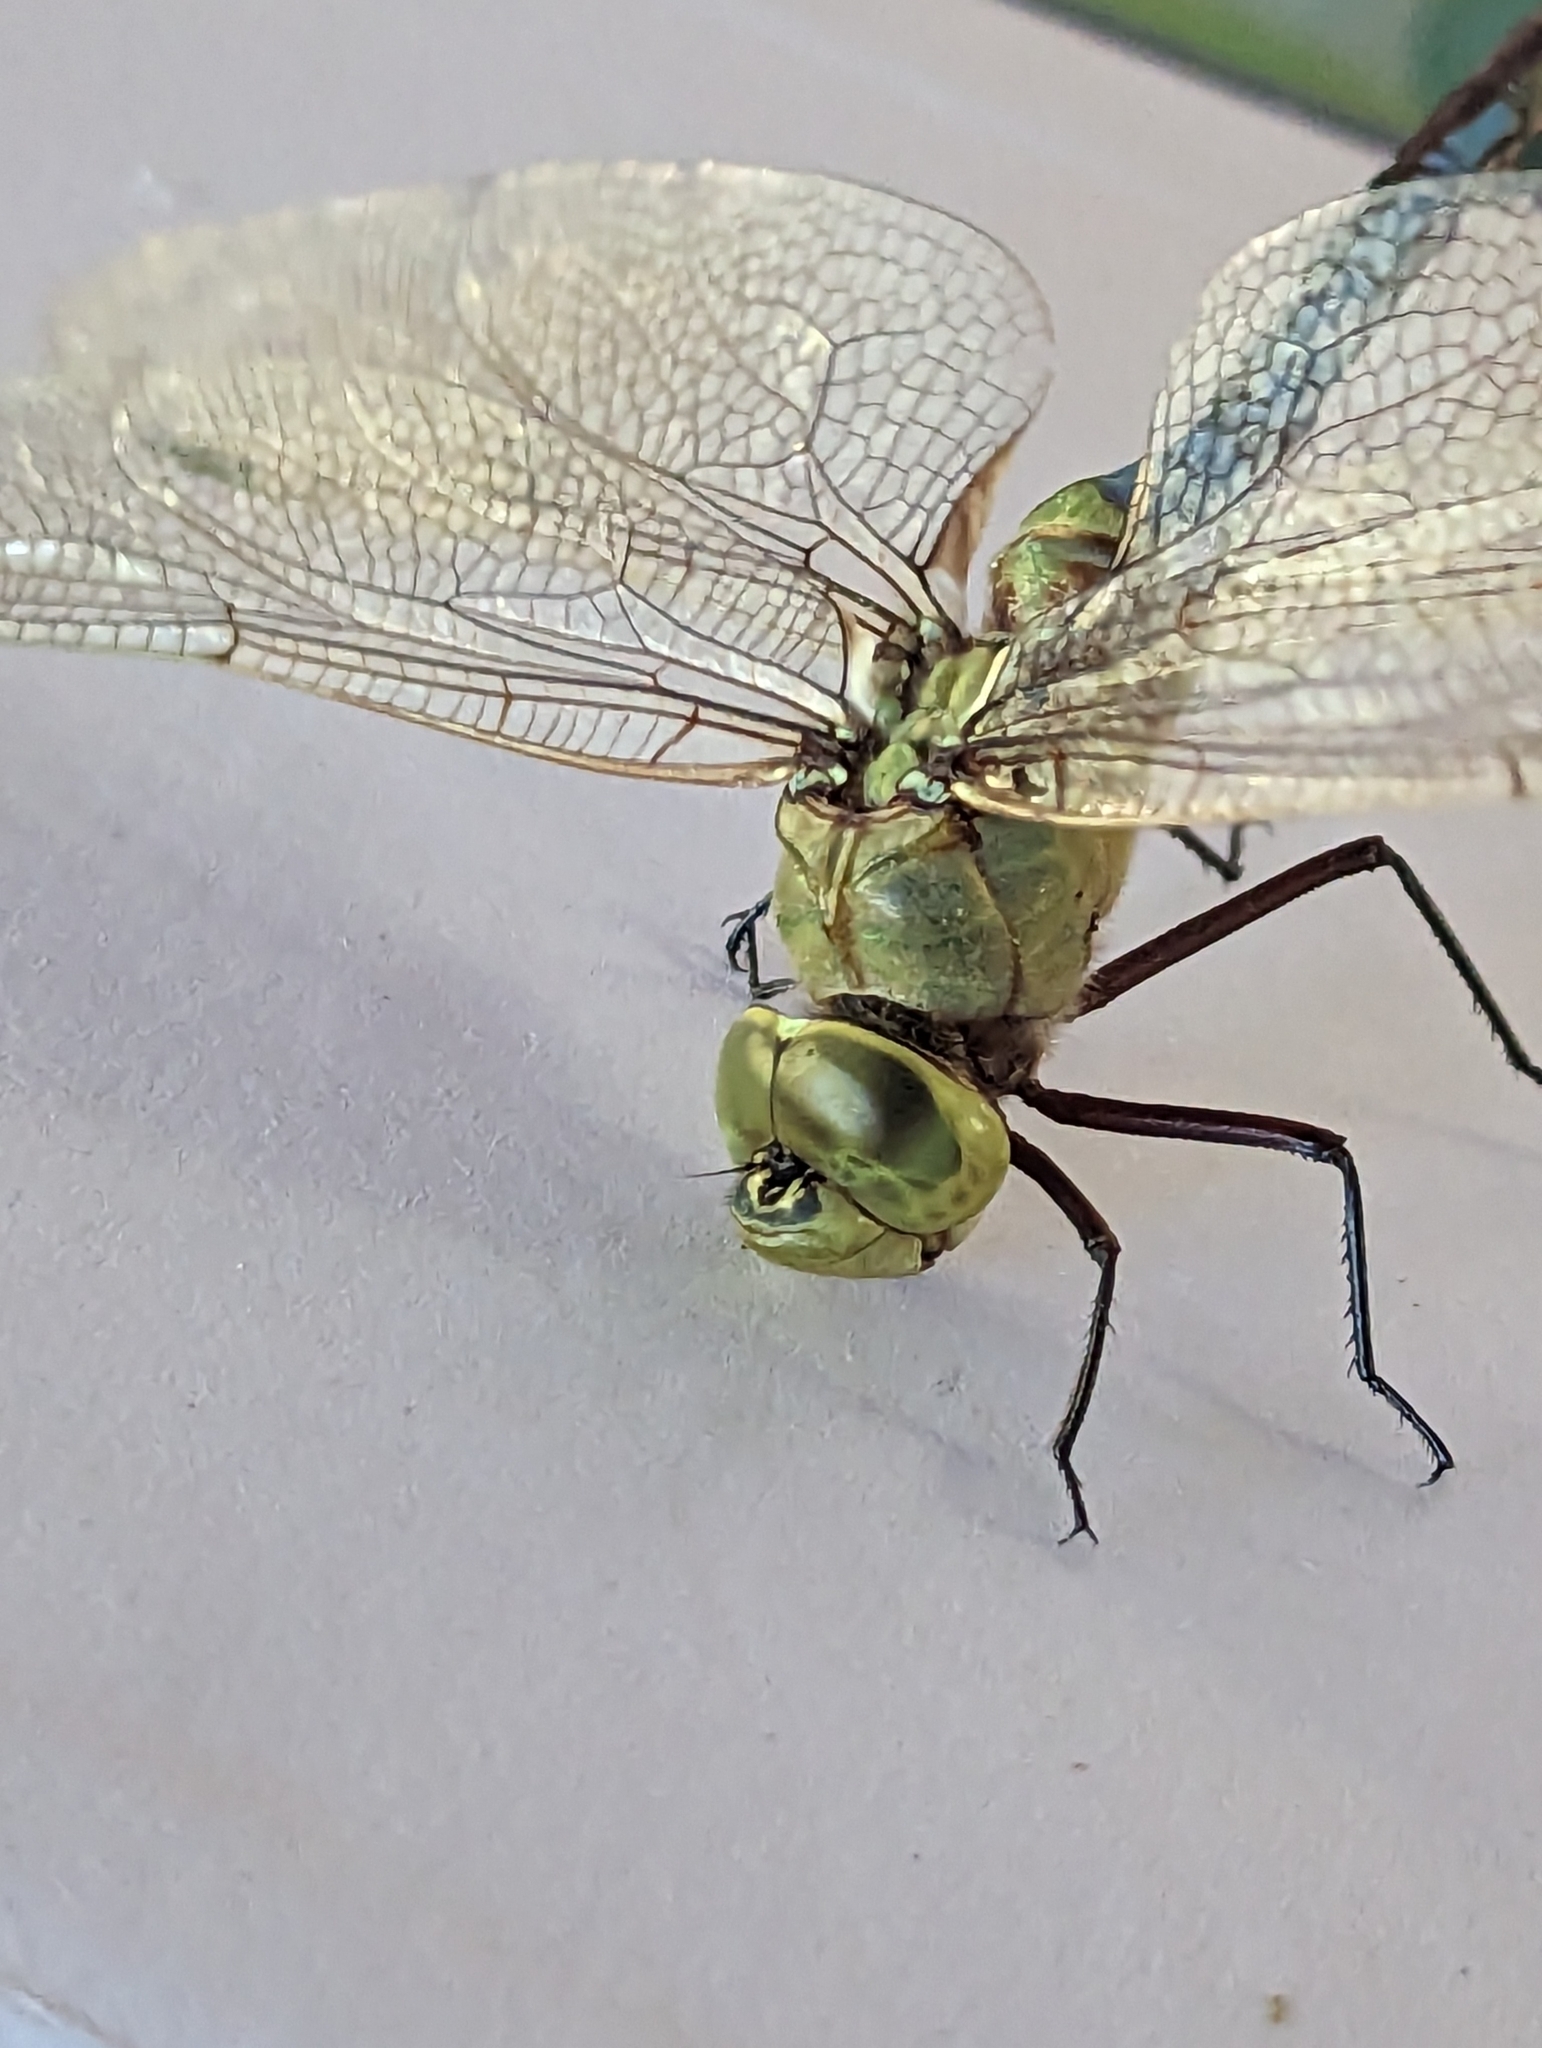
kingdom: Animalia
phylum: Arthropoda
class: Insecta
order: Odonata
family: Aeshnidae
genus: Anax
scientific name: Anax junius
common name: Common green darner
